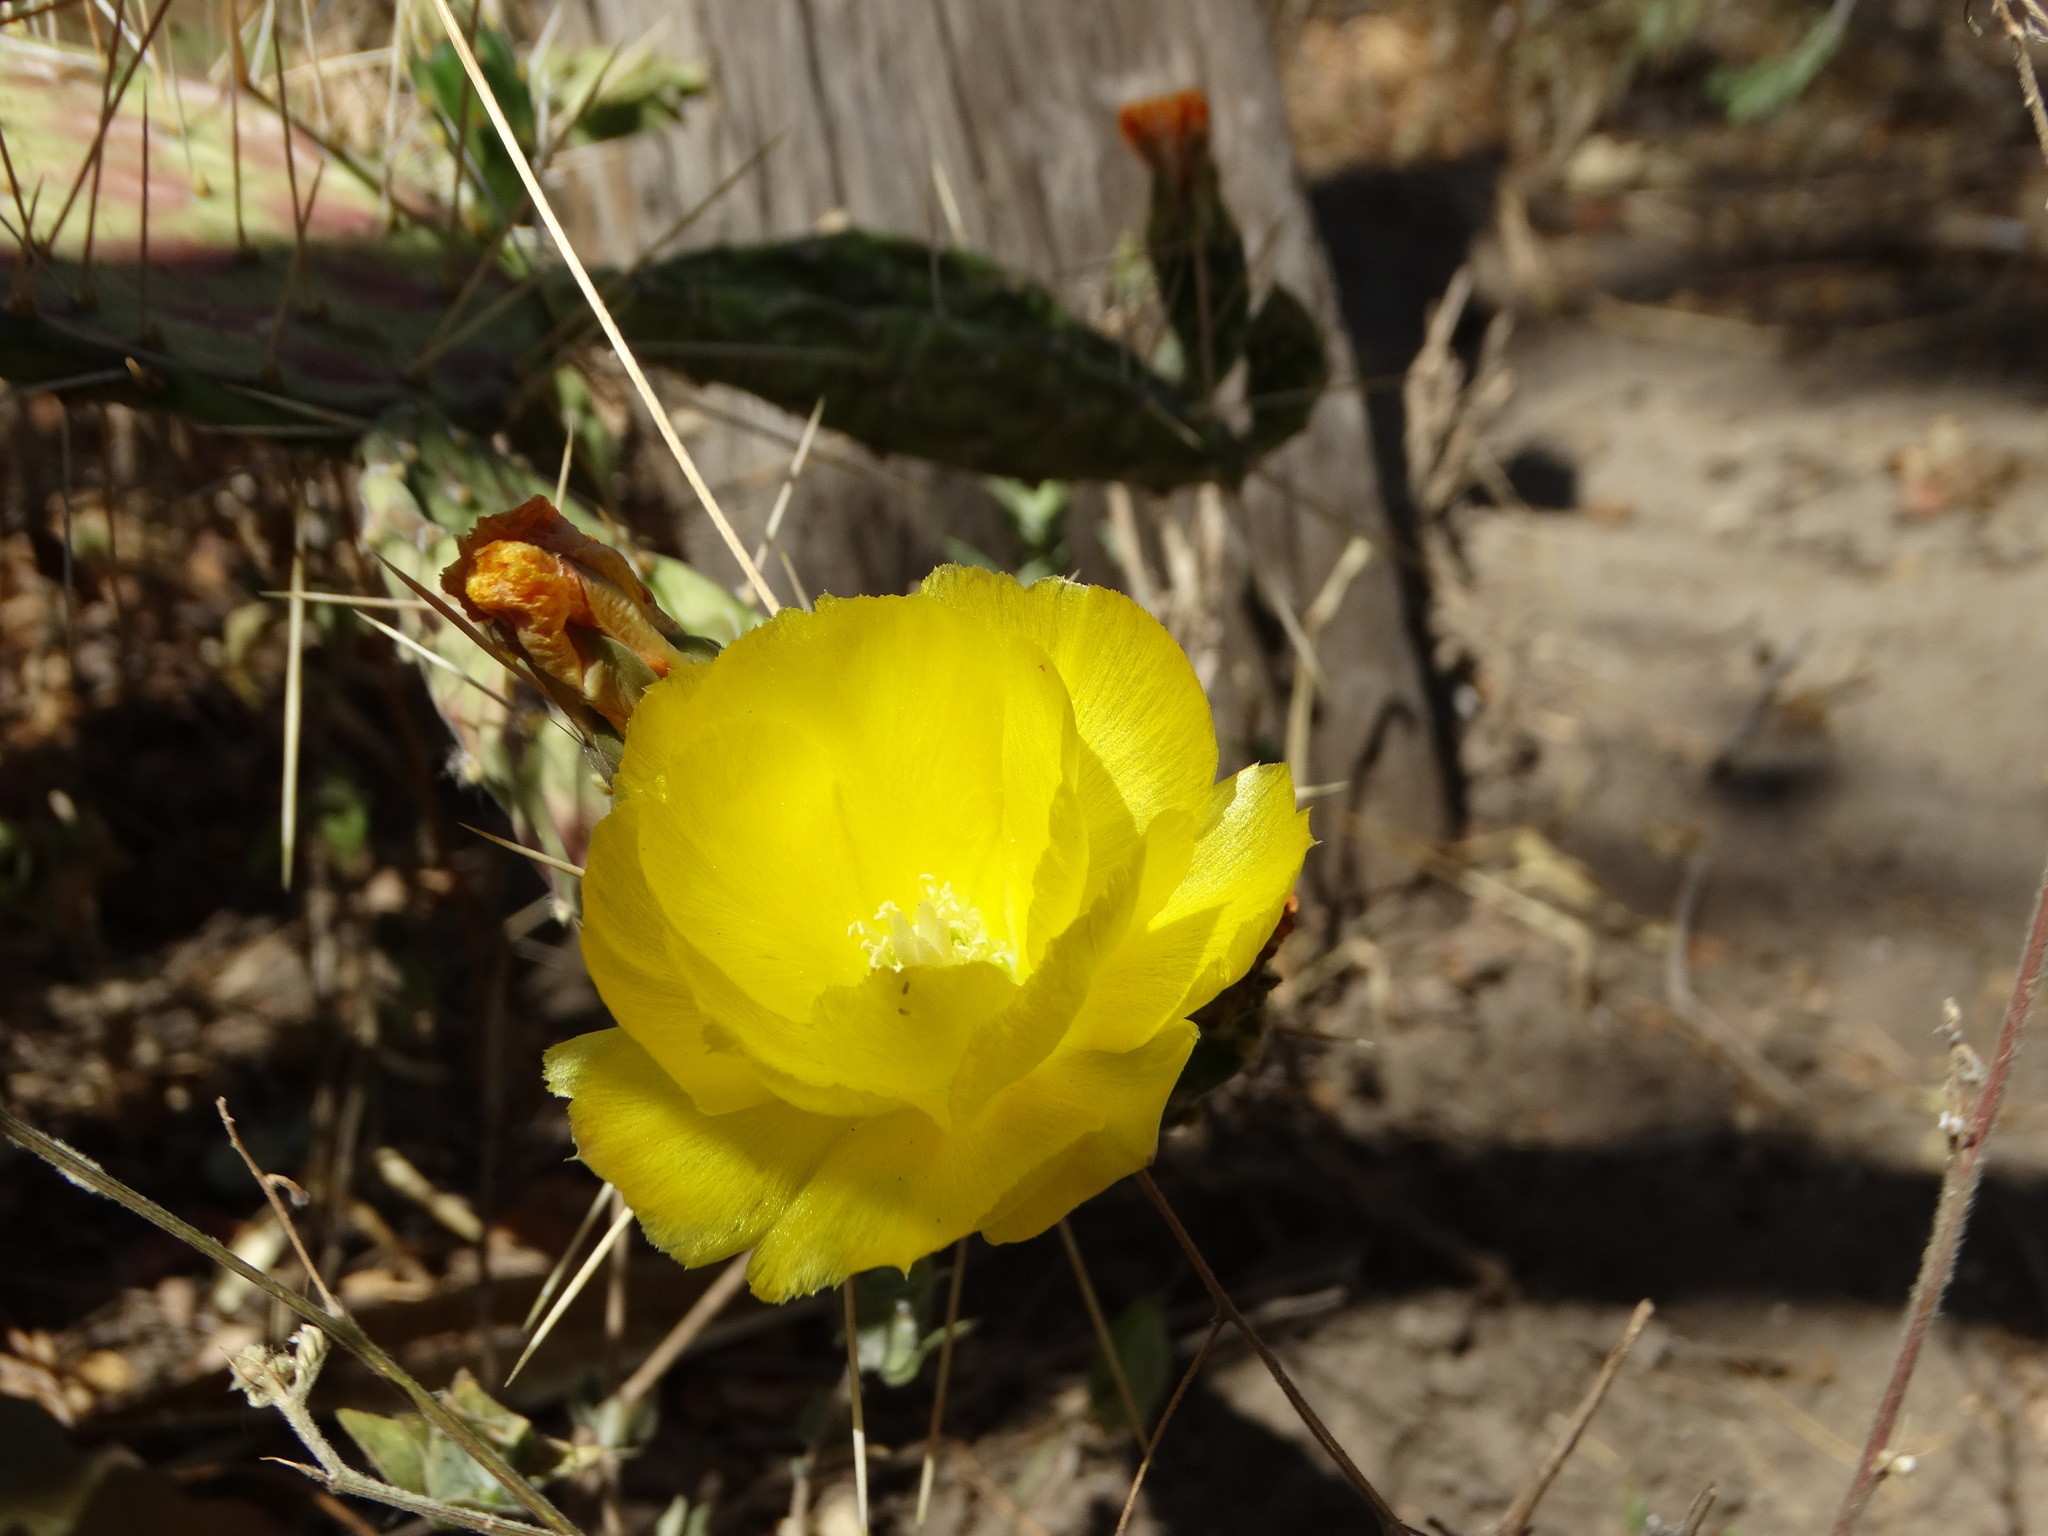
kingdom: Plantae
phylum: Tracheophyta
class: Magnoliopsida
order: Caryophyllales
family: Cactaceae
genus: Opuntia
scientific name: Opuntia decumbens
